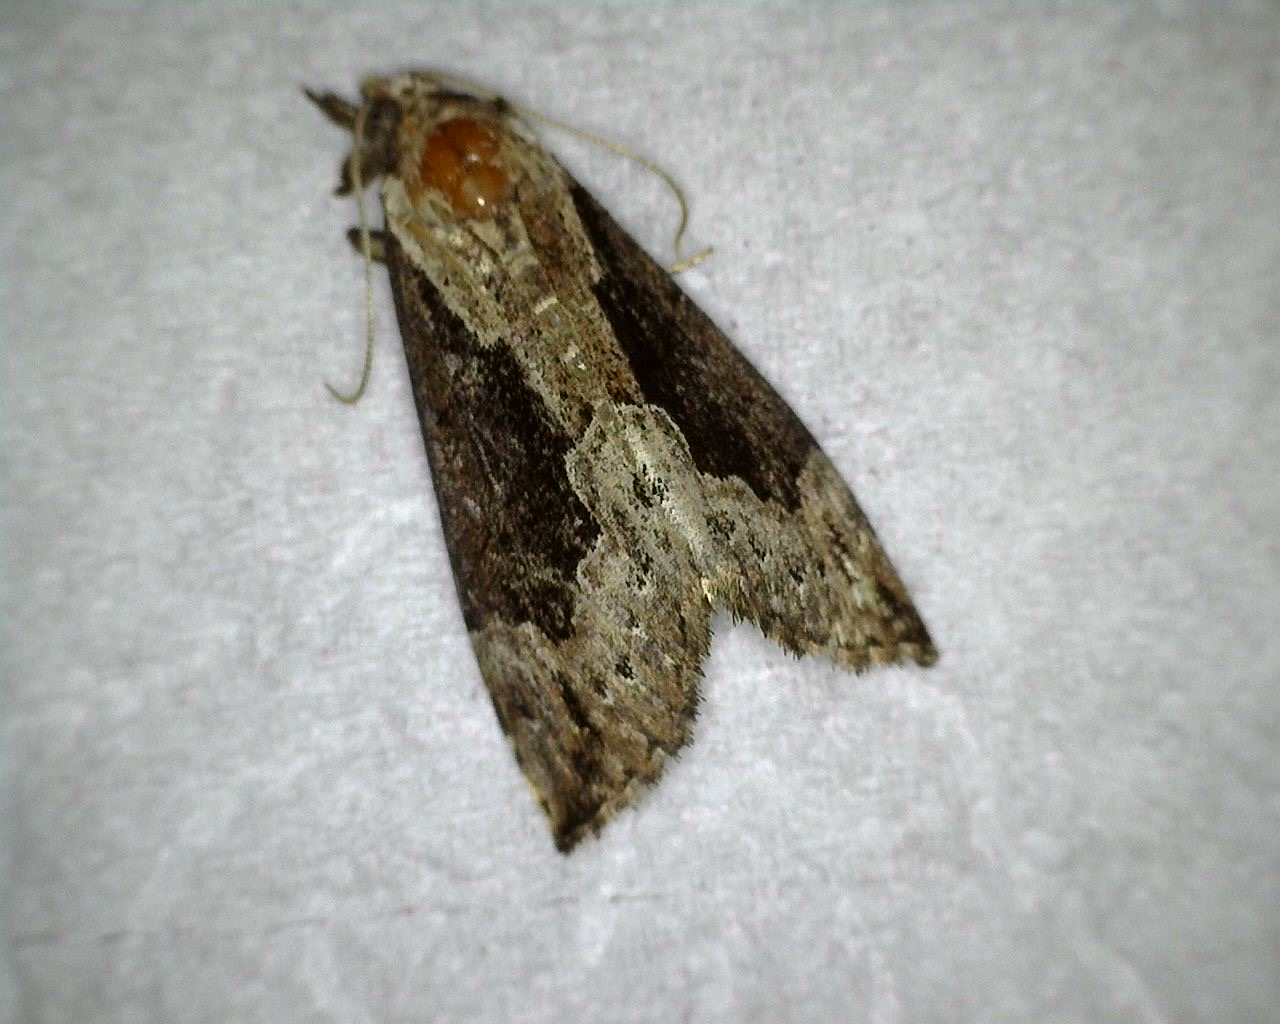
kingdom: Animalia
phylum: Arthropoda
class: Insecta
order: Lepidoptera
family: Erebidae
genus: Hypena
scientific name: Hypena baltimoralis
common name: Baltimore snout
